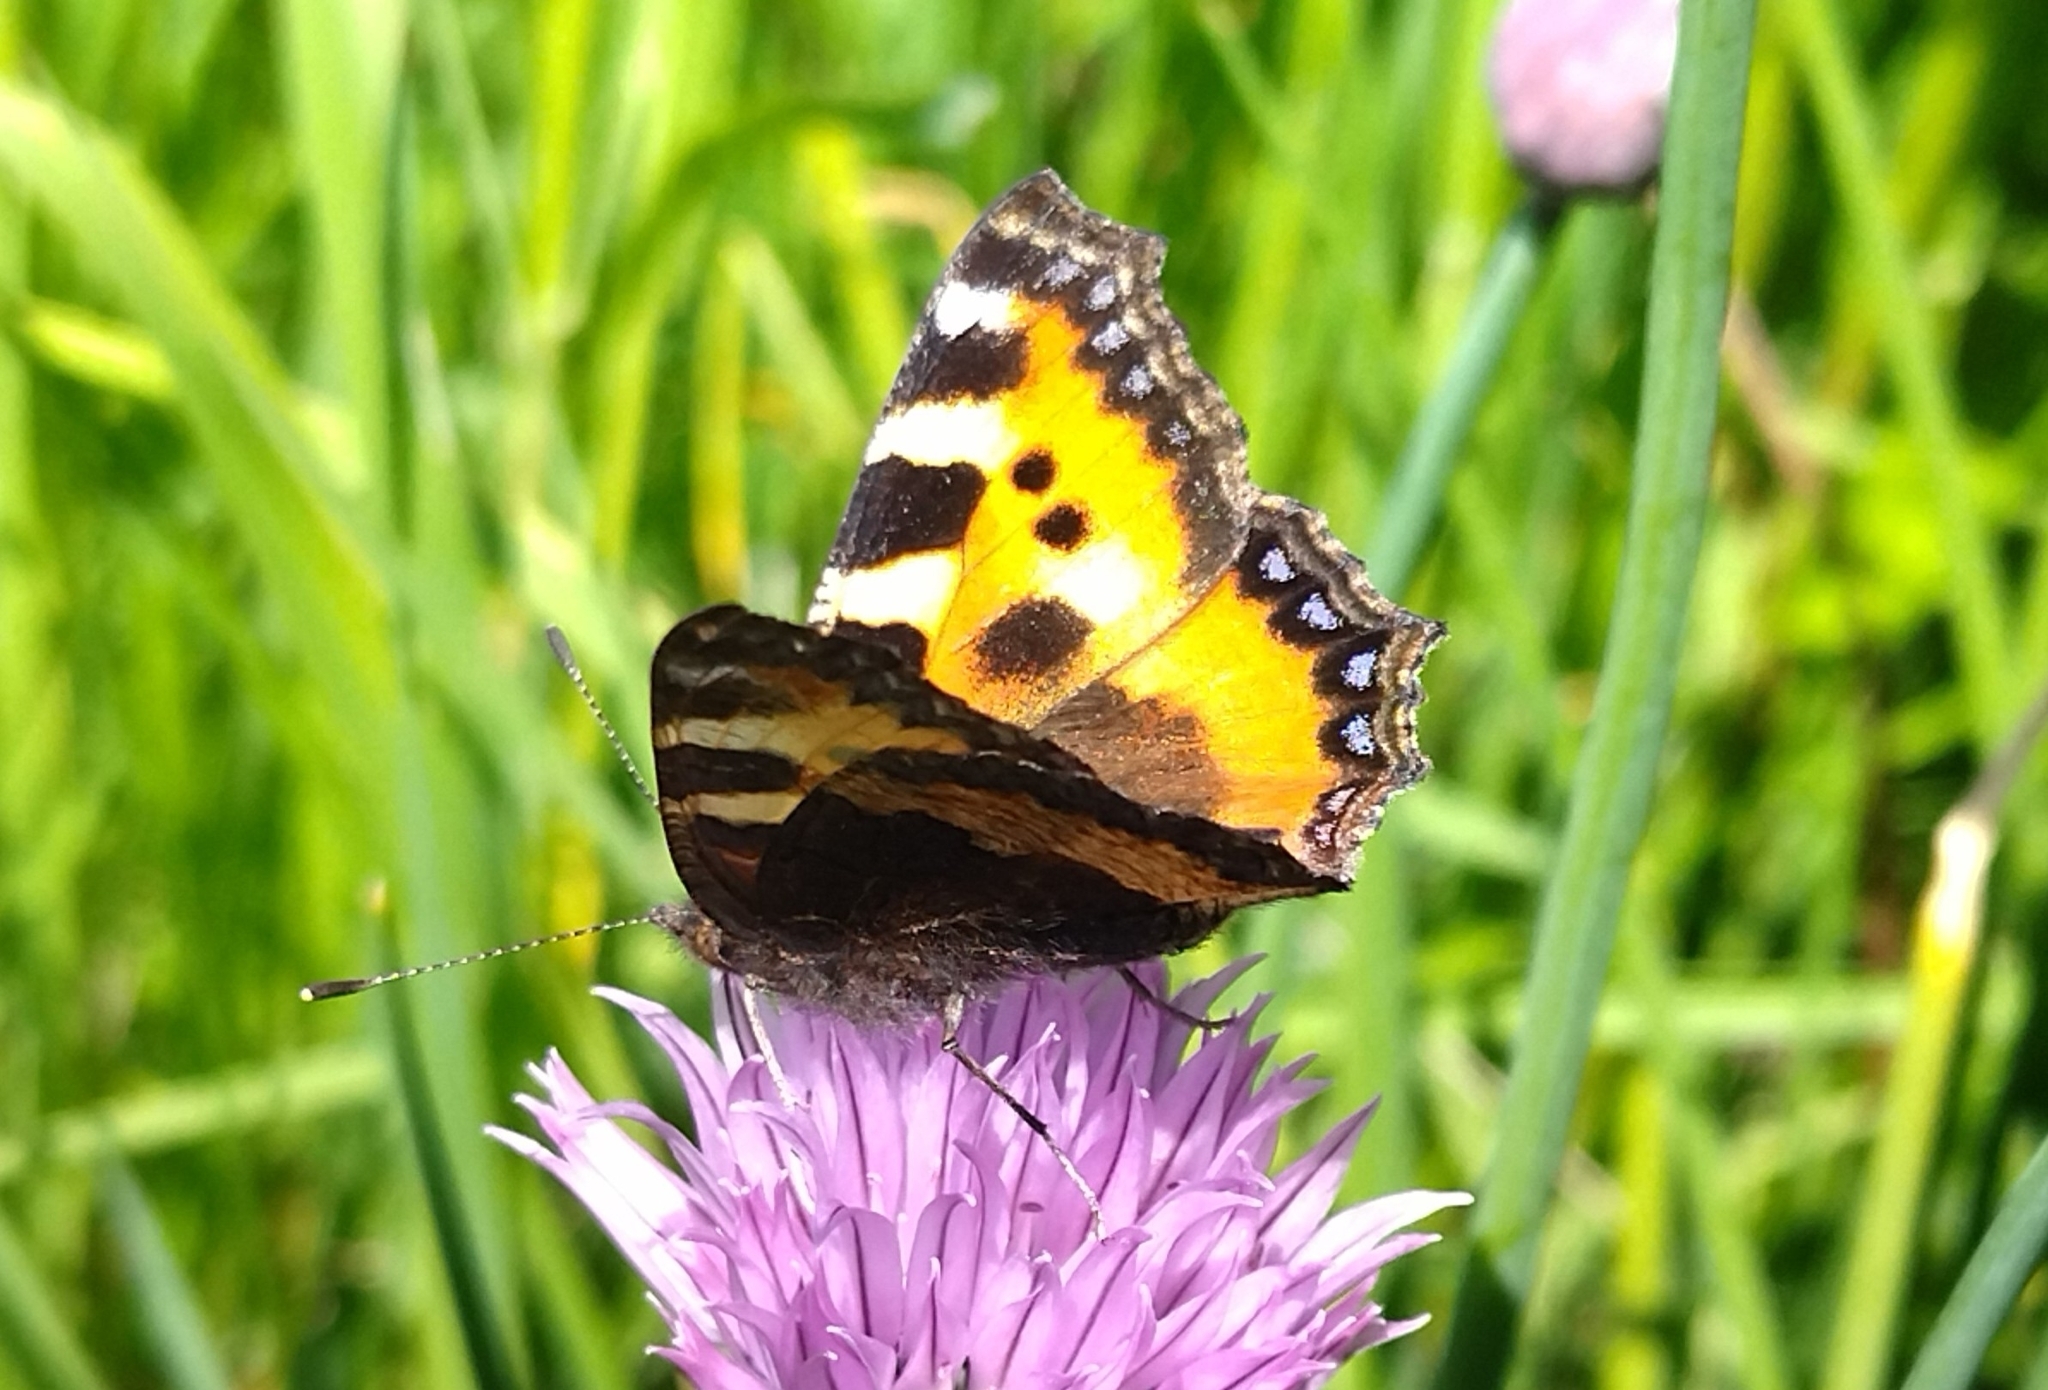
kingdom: Animalia
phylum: Arthropoda
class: Insecta
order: Lepidoptera
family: Nymphalidae
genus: Aglais
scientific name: Aglais urticae
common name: Small tortoiseshell
